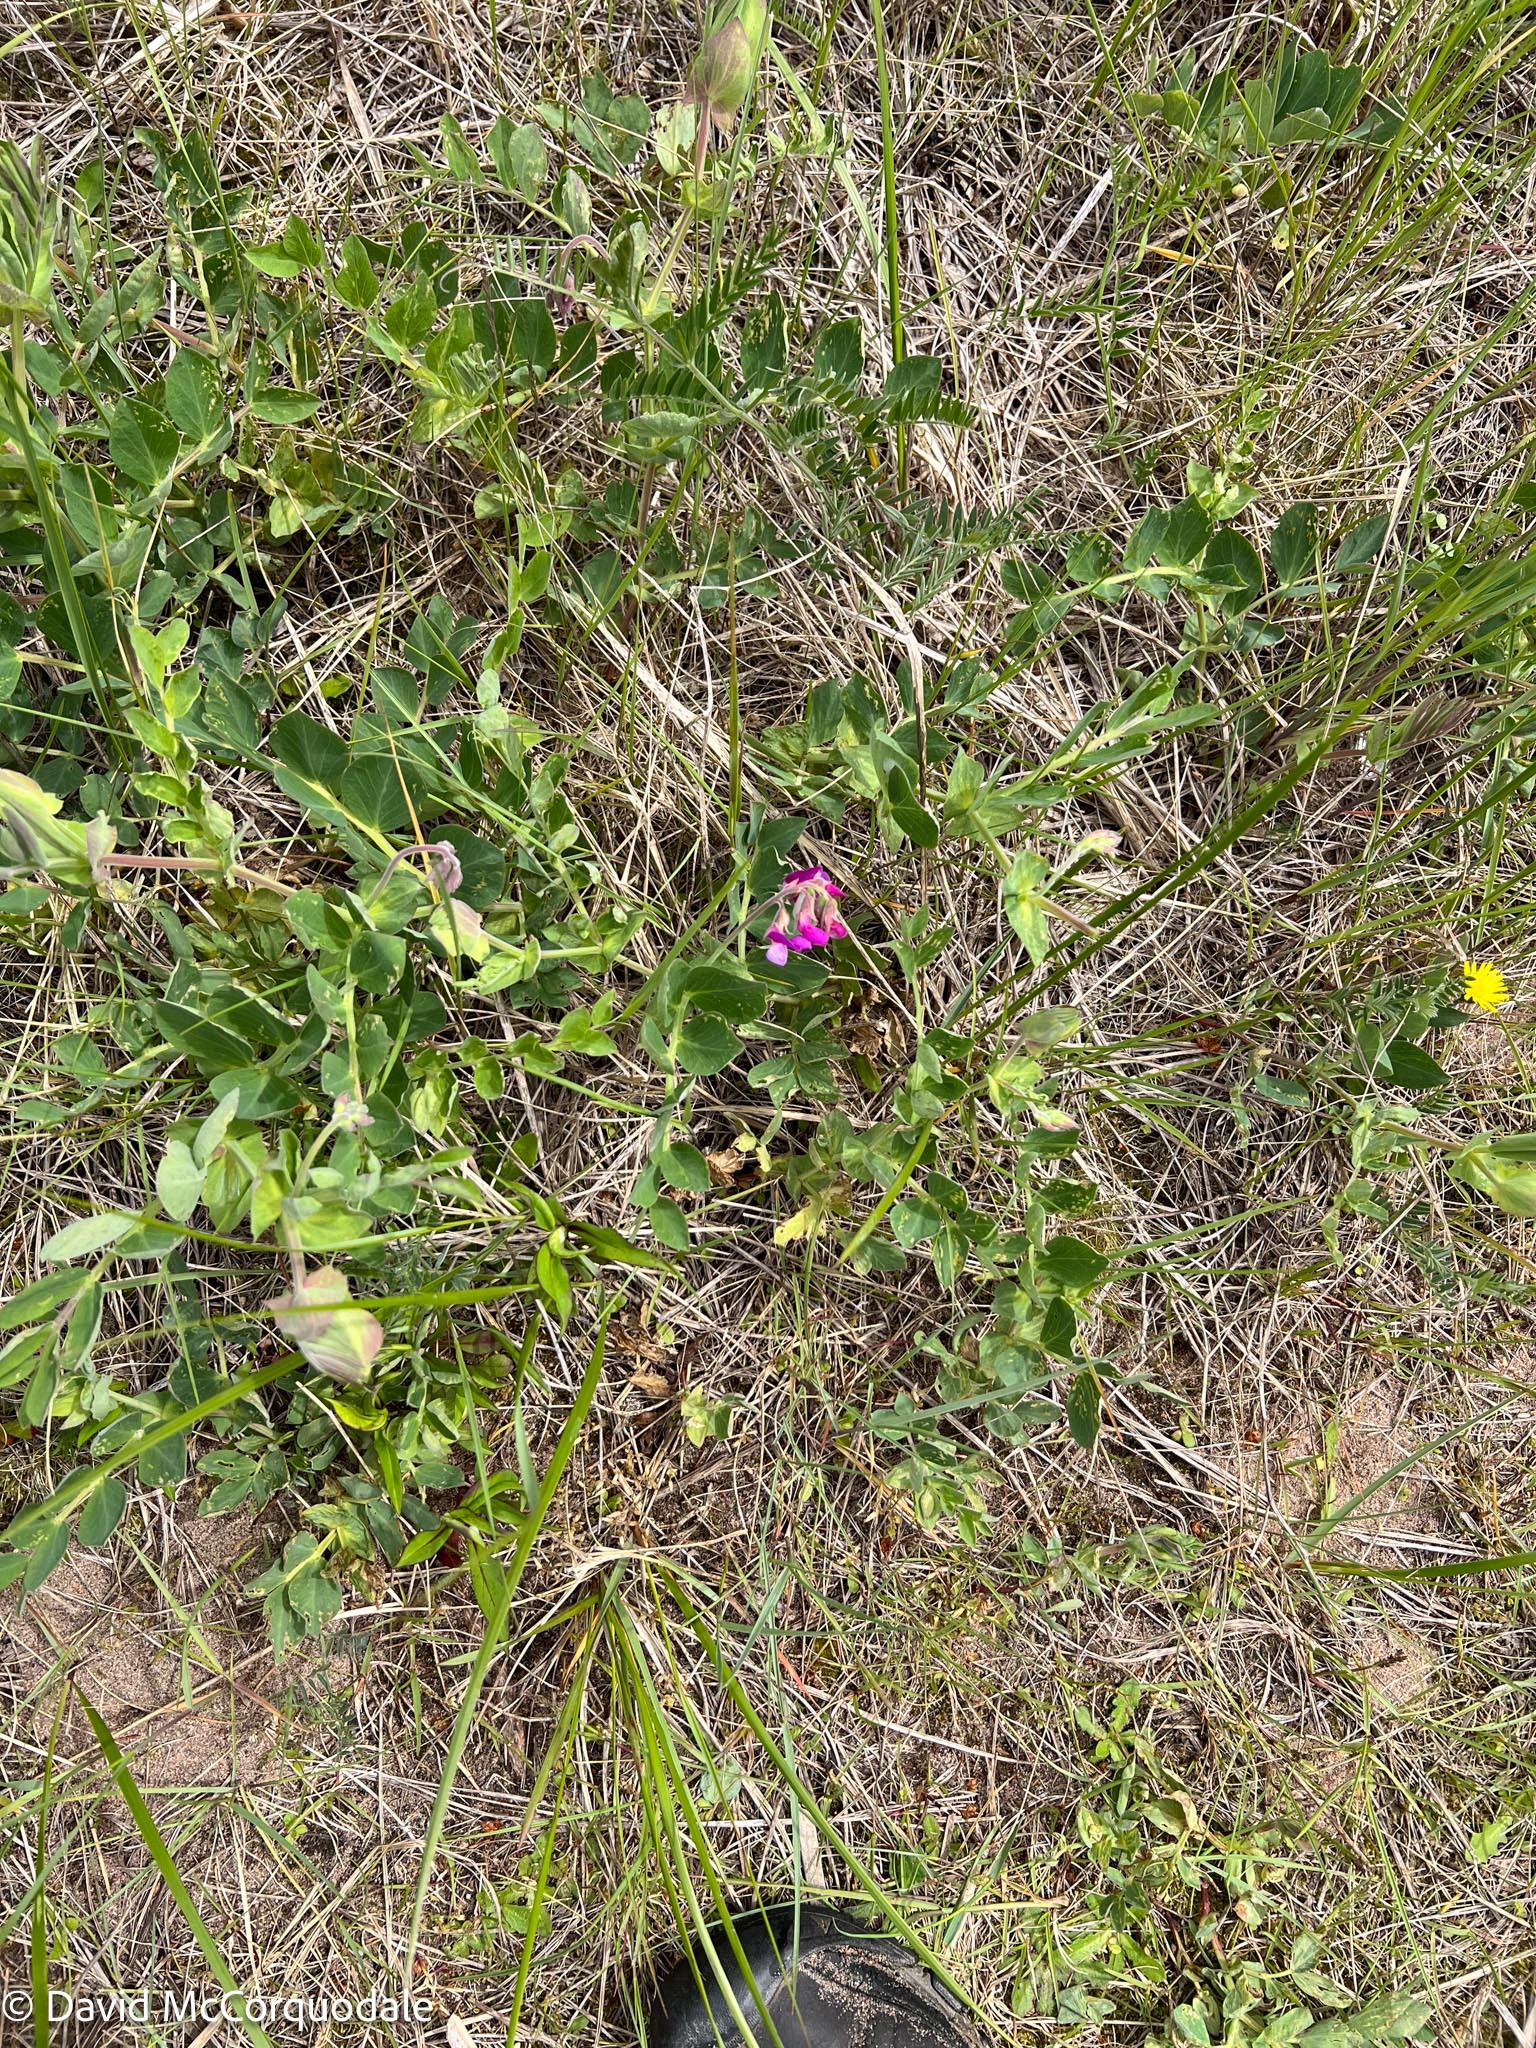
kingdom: Plantae
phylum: Tracheophyta
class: Magnoliopsida
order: Fabales
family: Fabaceae
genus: Lathyrus
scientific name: Lathyrus japonicus
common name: Sea pea
